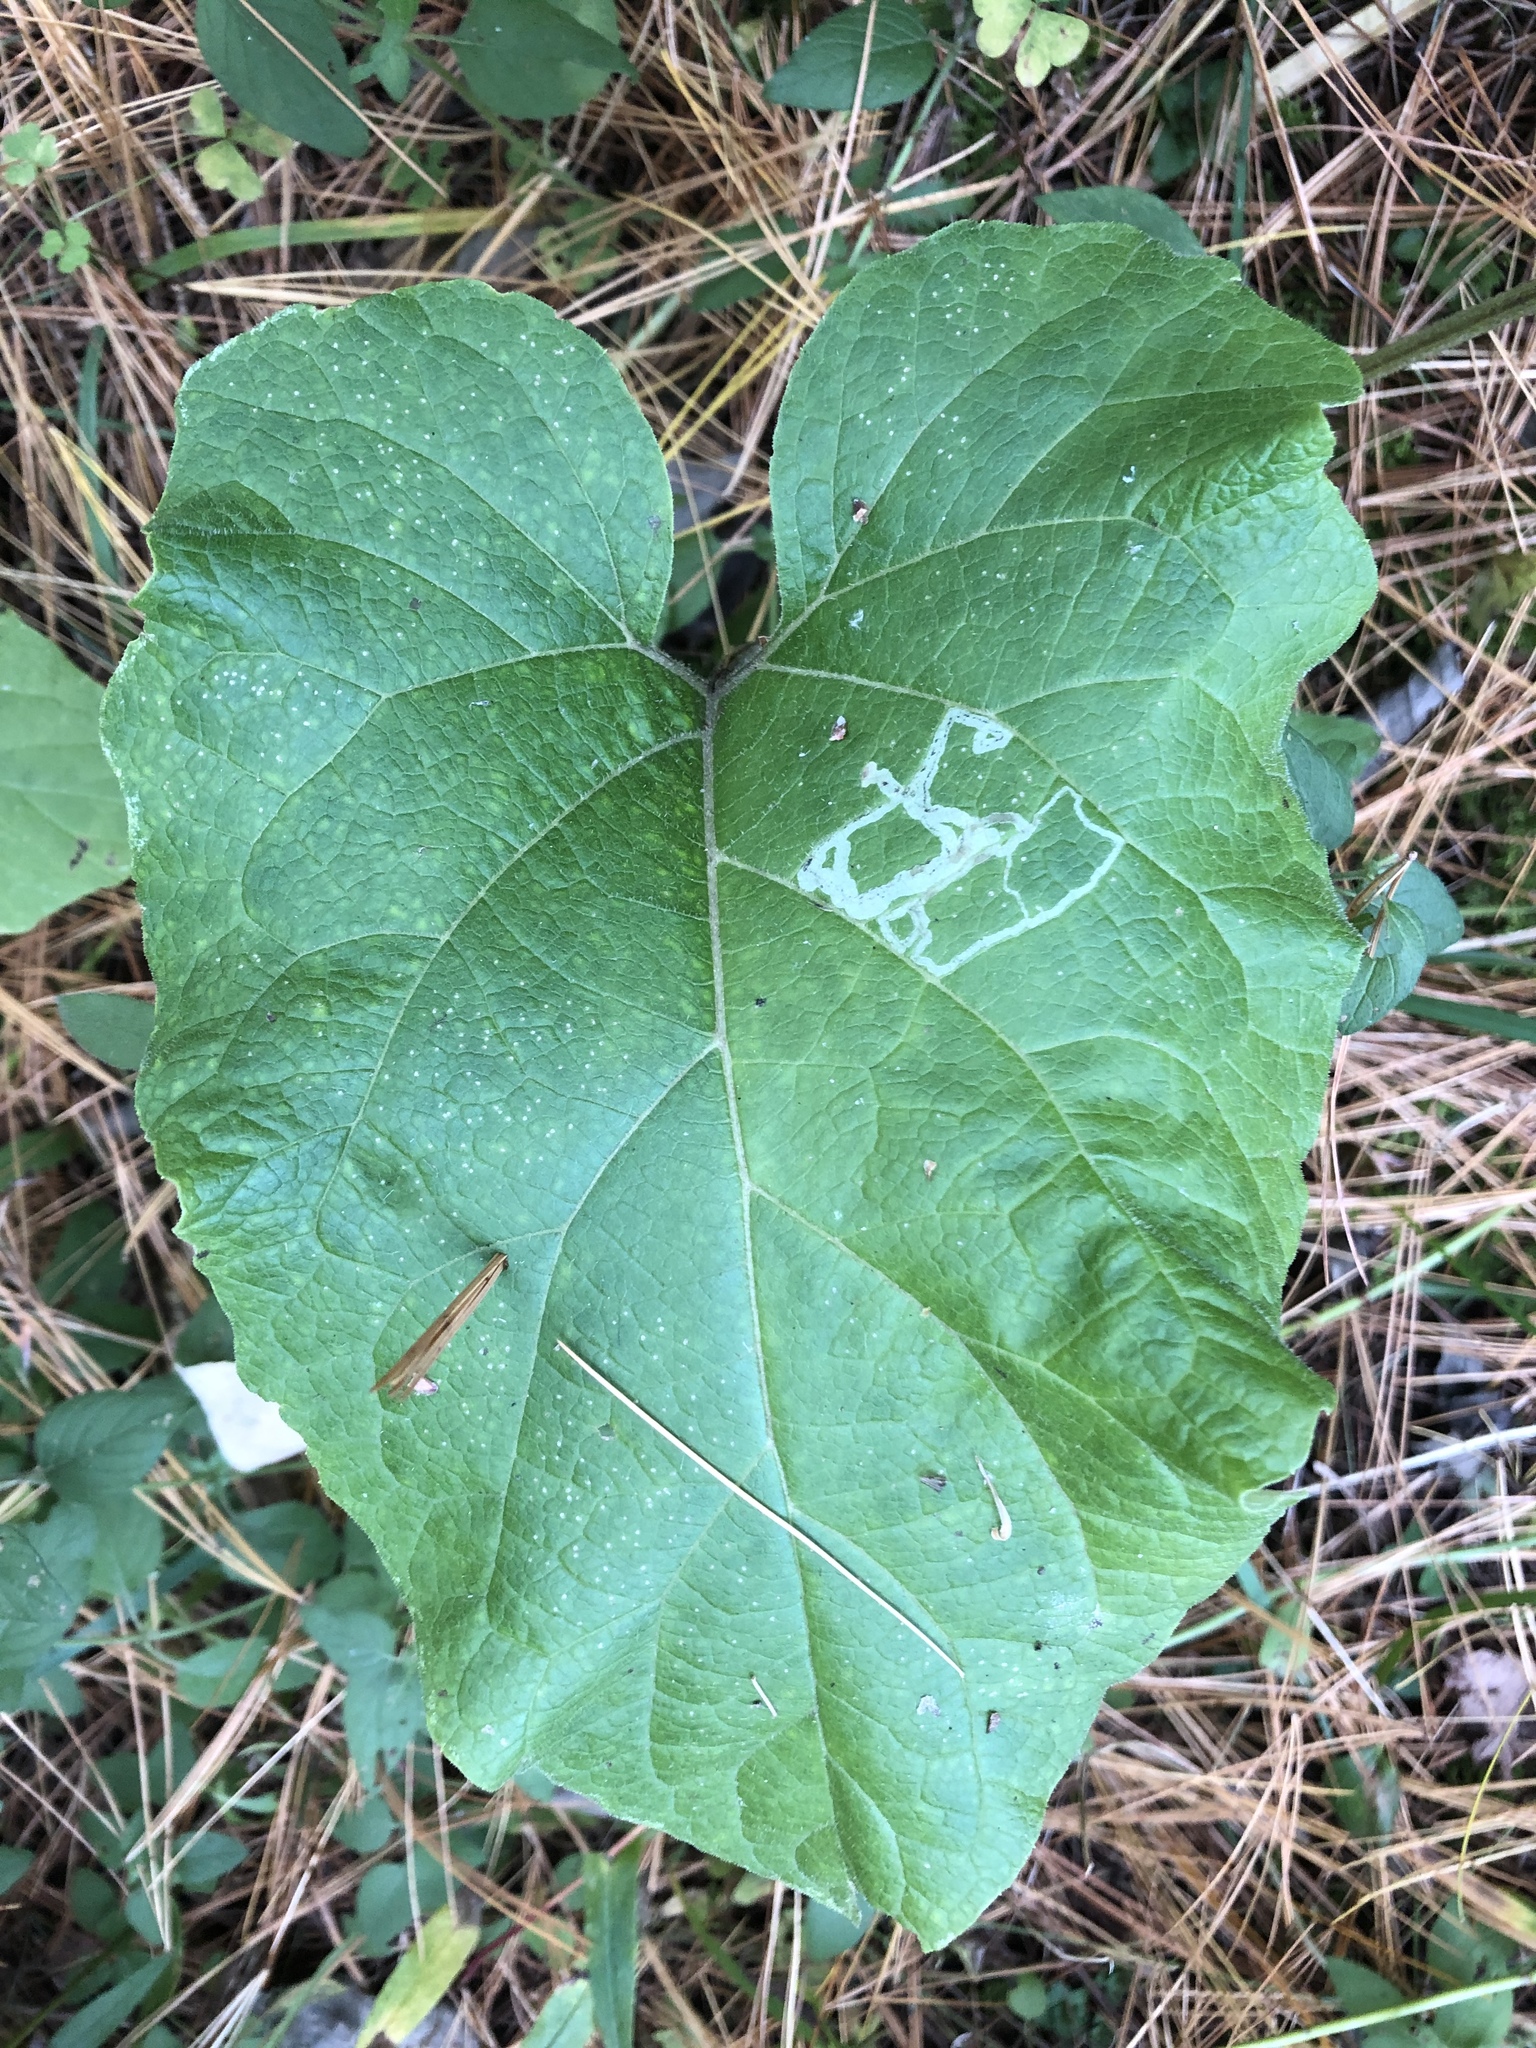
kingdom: Animalia
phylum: Arthropoda
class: Insecta
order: Diptera
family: Agromyzidae
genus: Liriomyza
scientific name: Liriomyza arctii
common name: Burdock leafminer
